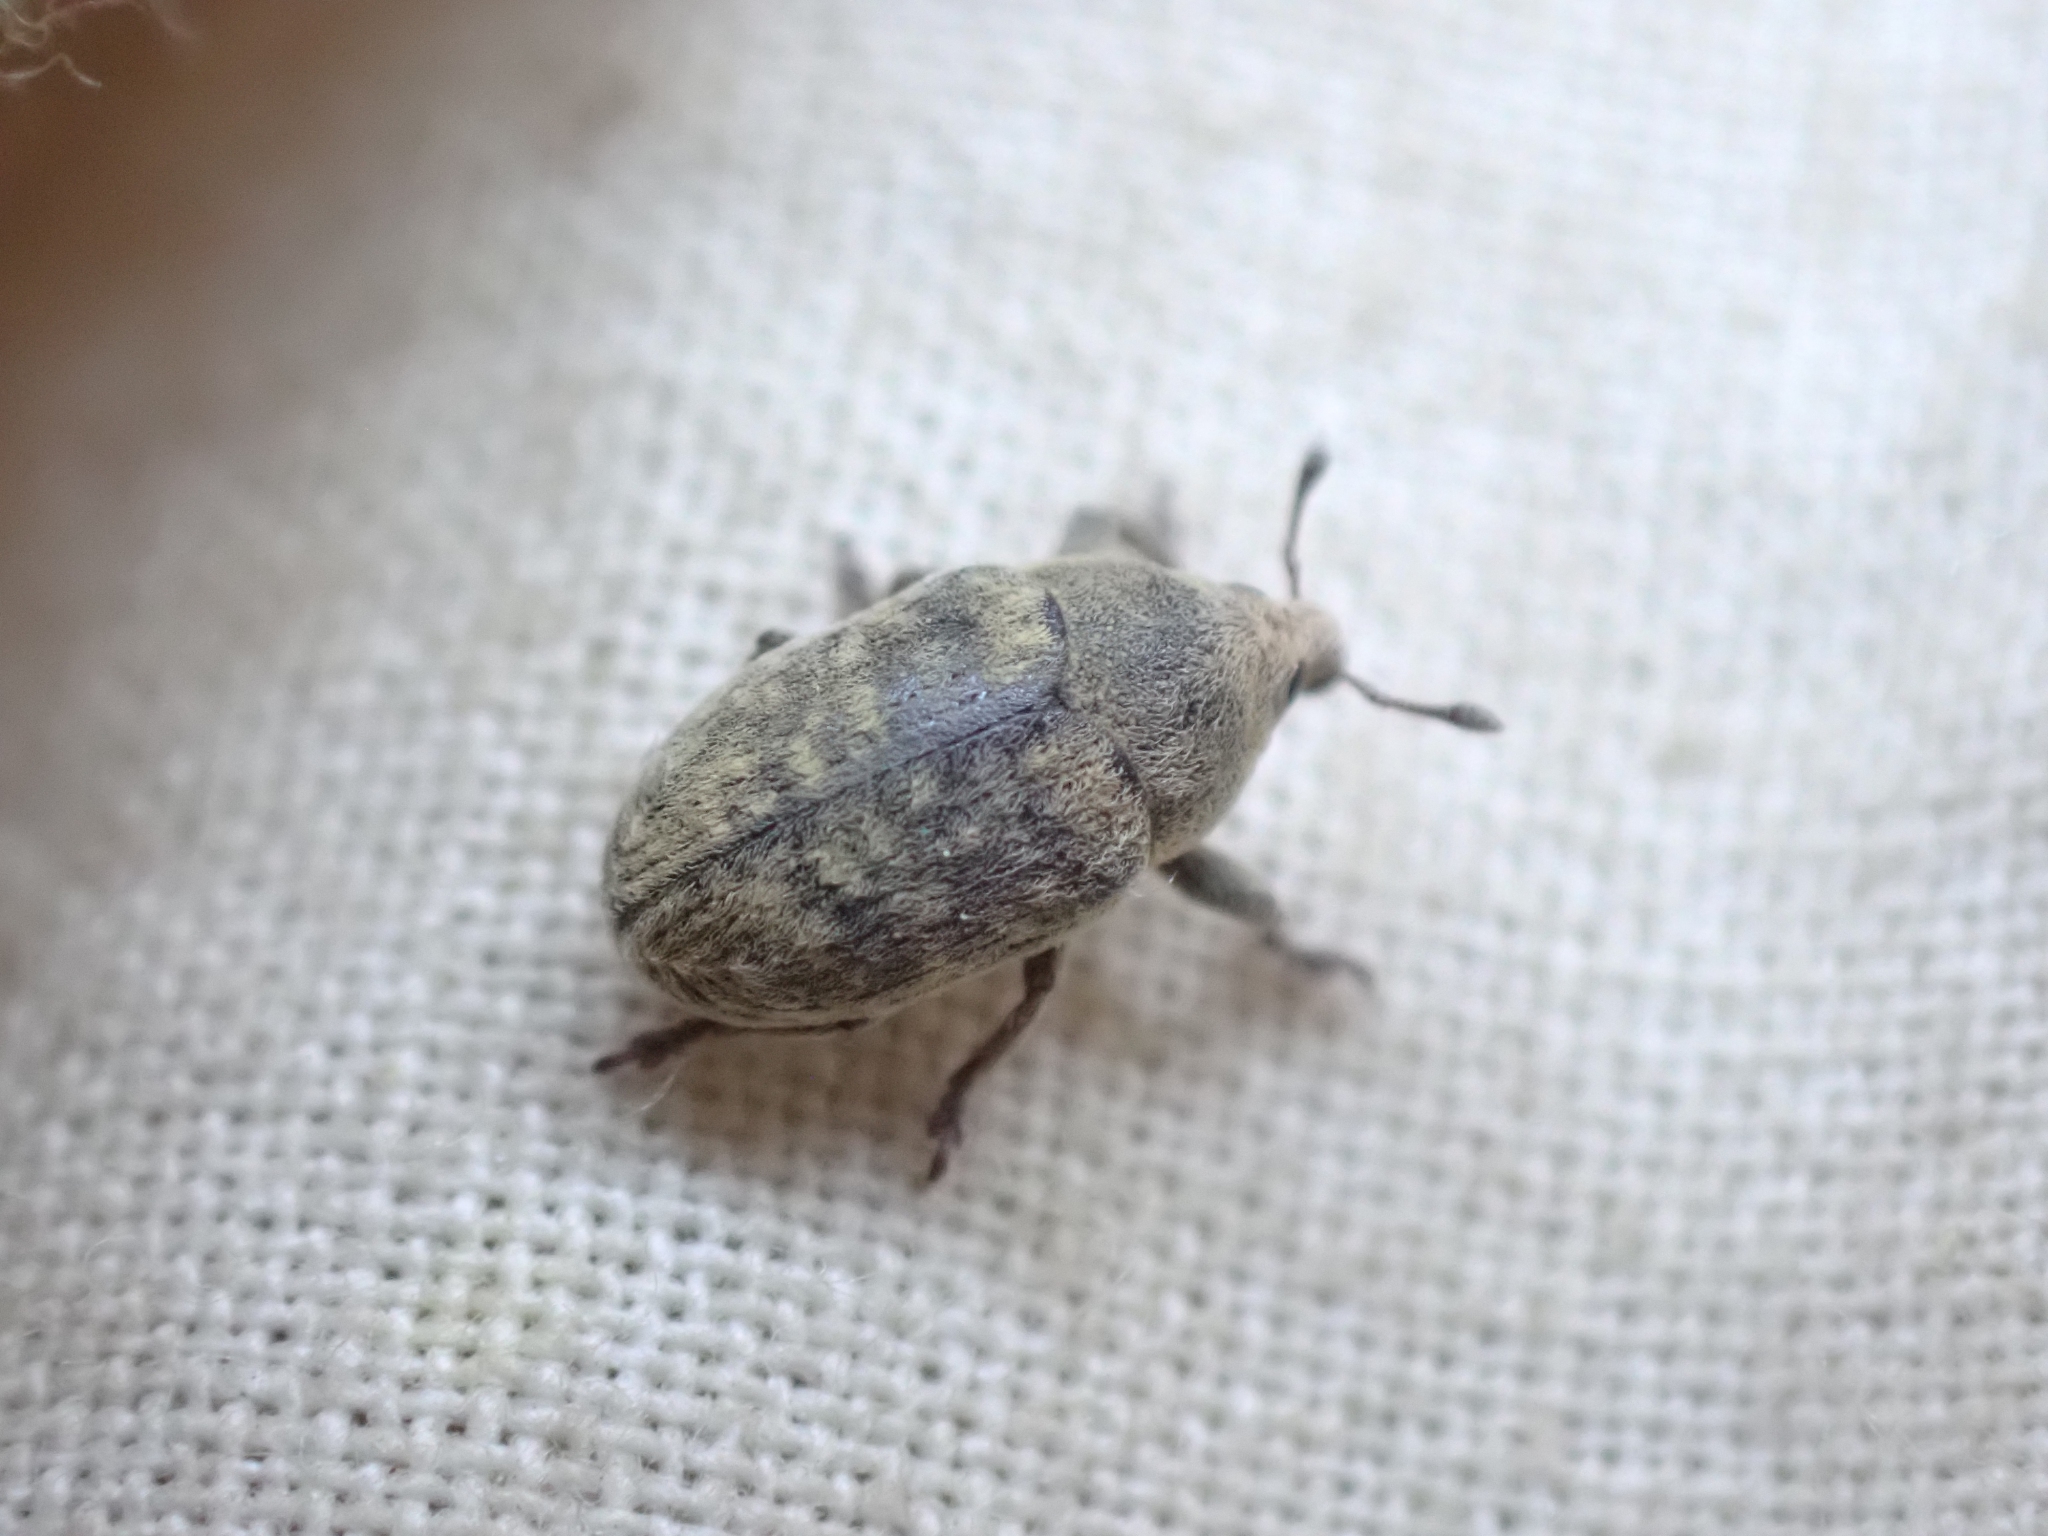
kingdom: Animalia
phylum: Arthropoda
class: Insecta
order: Coleoptera
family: Curculionidae
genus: Larinus
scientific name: Larinus minutus
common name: Weevil
